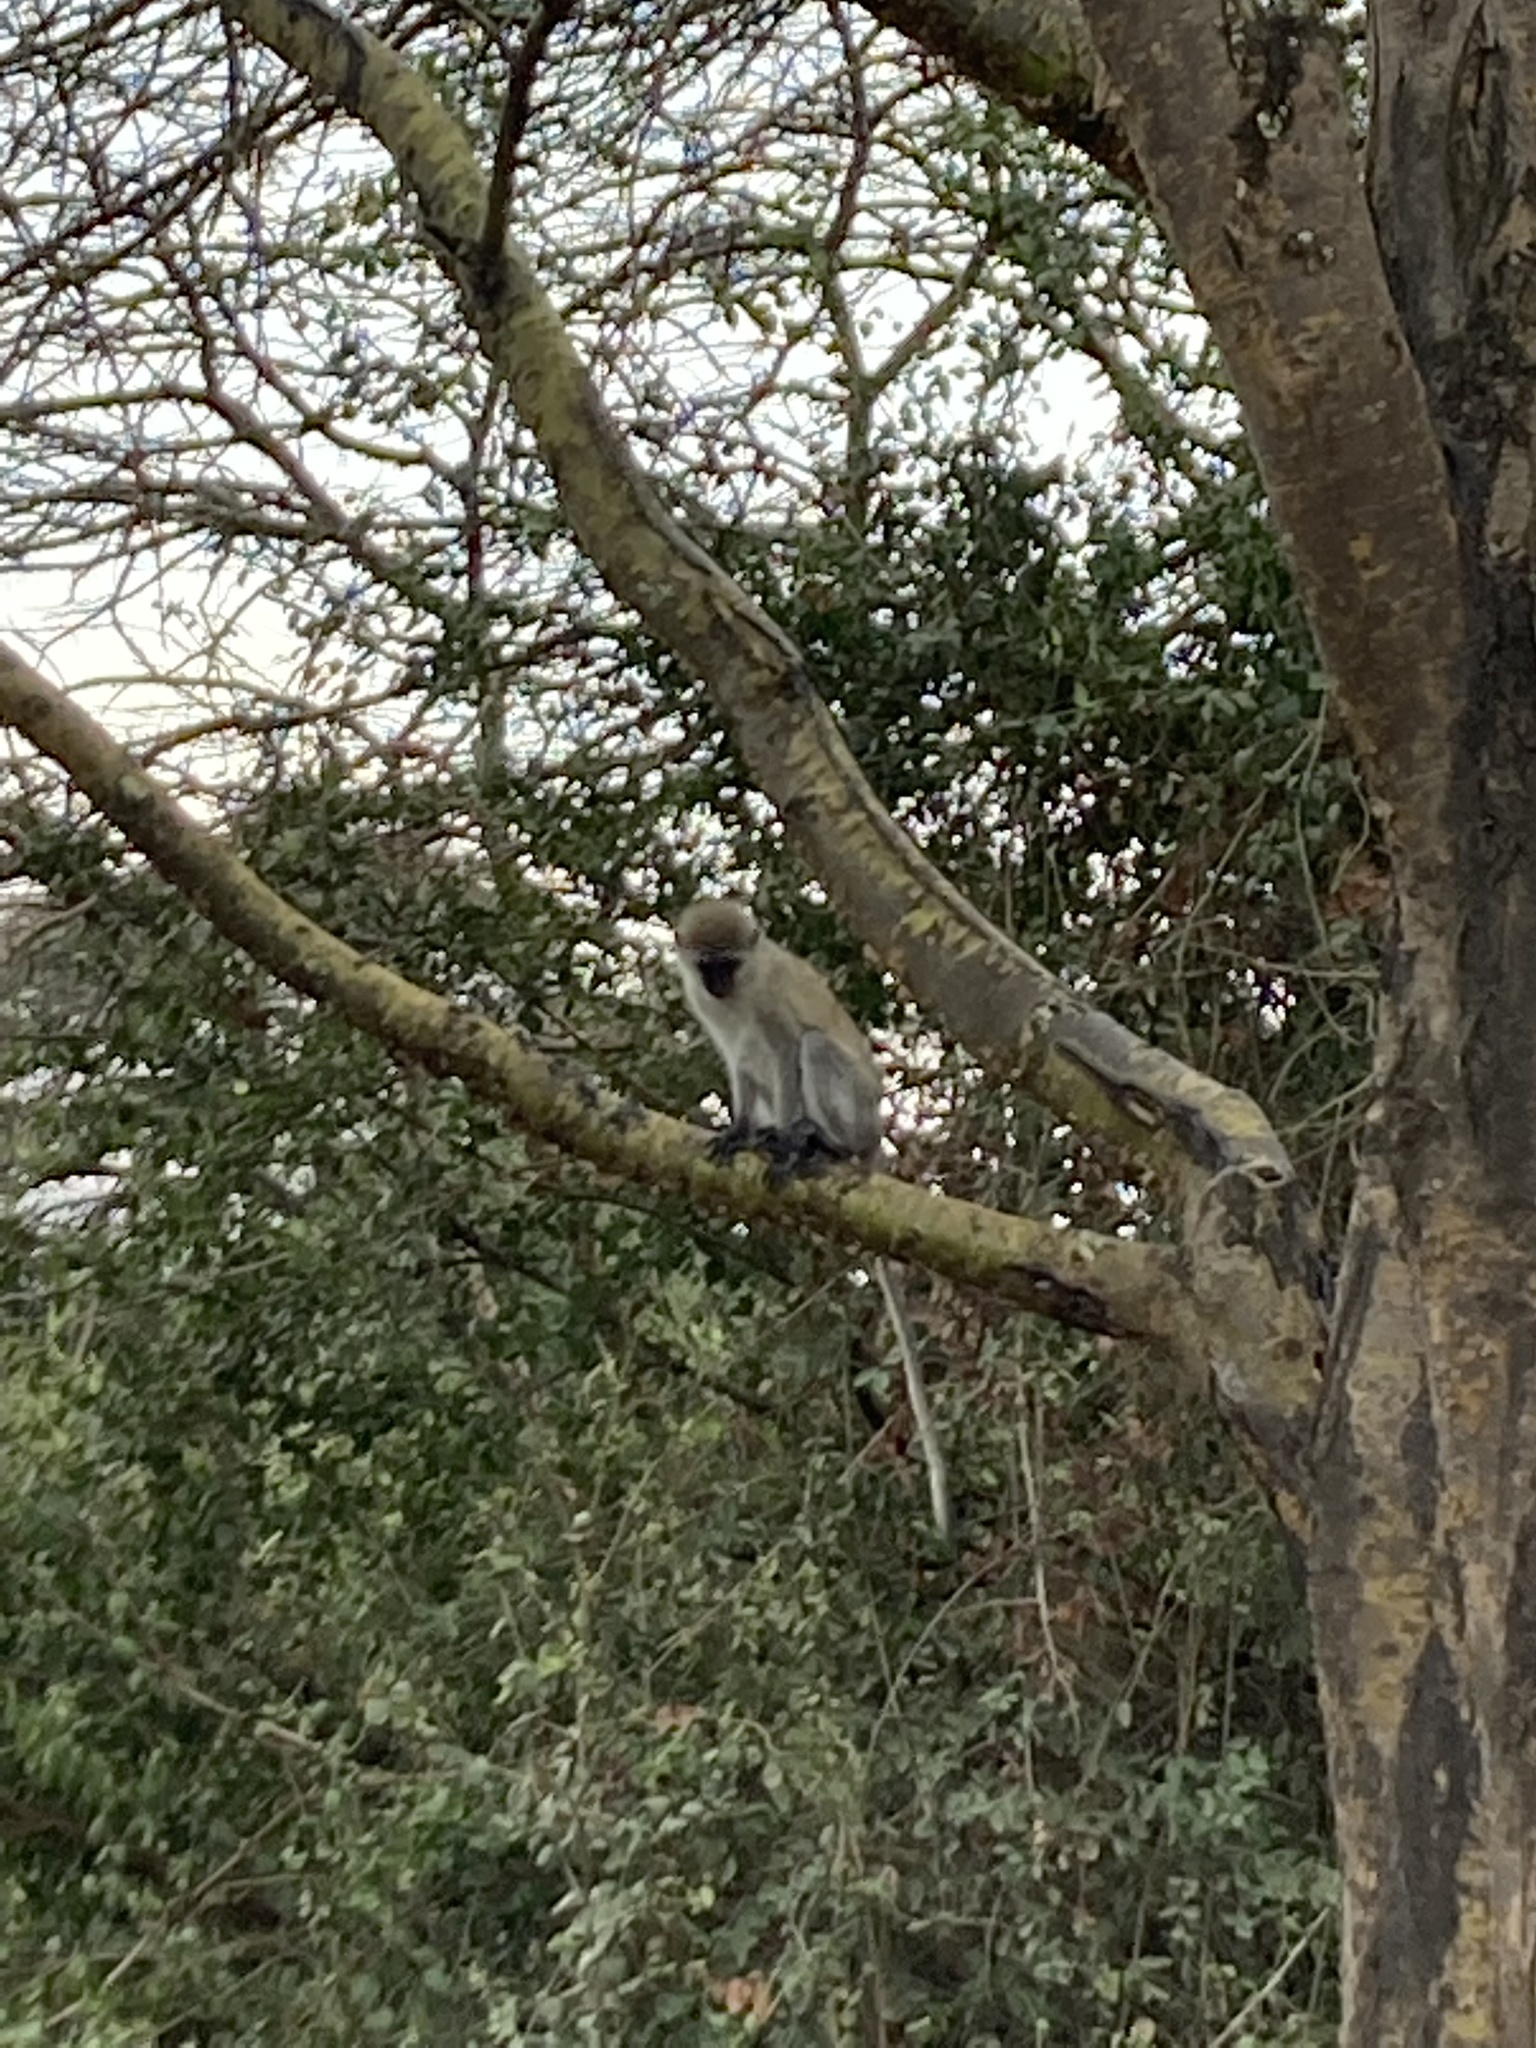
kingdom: Animalia
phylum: Chordata
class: Mammalia
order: Primates
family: Cercopithecidae
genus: Chlorocebus
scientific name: Chlorocebus pygerythrus
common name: Vervet monkey
